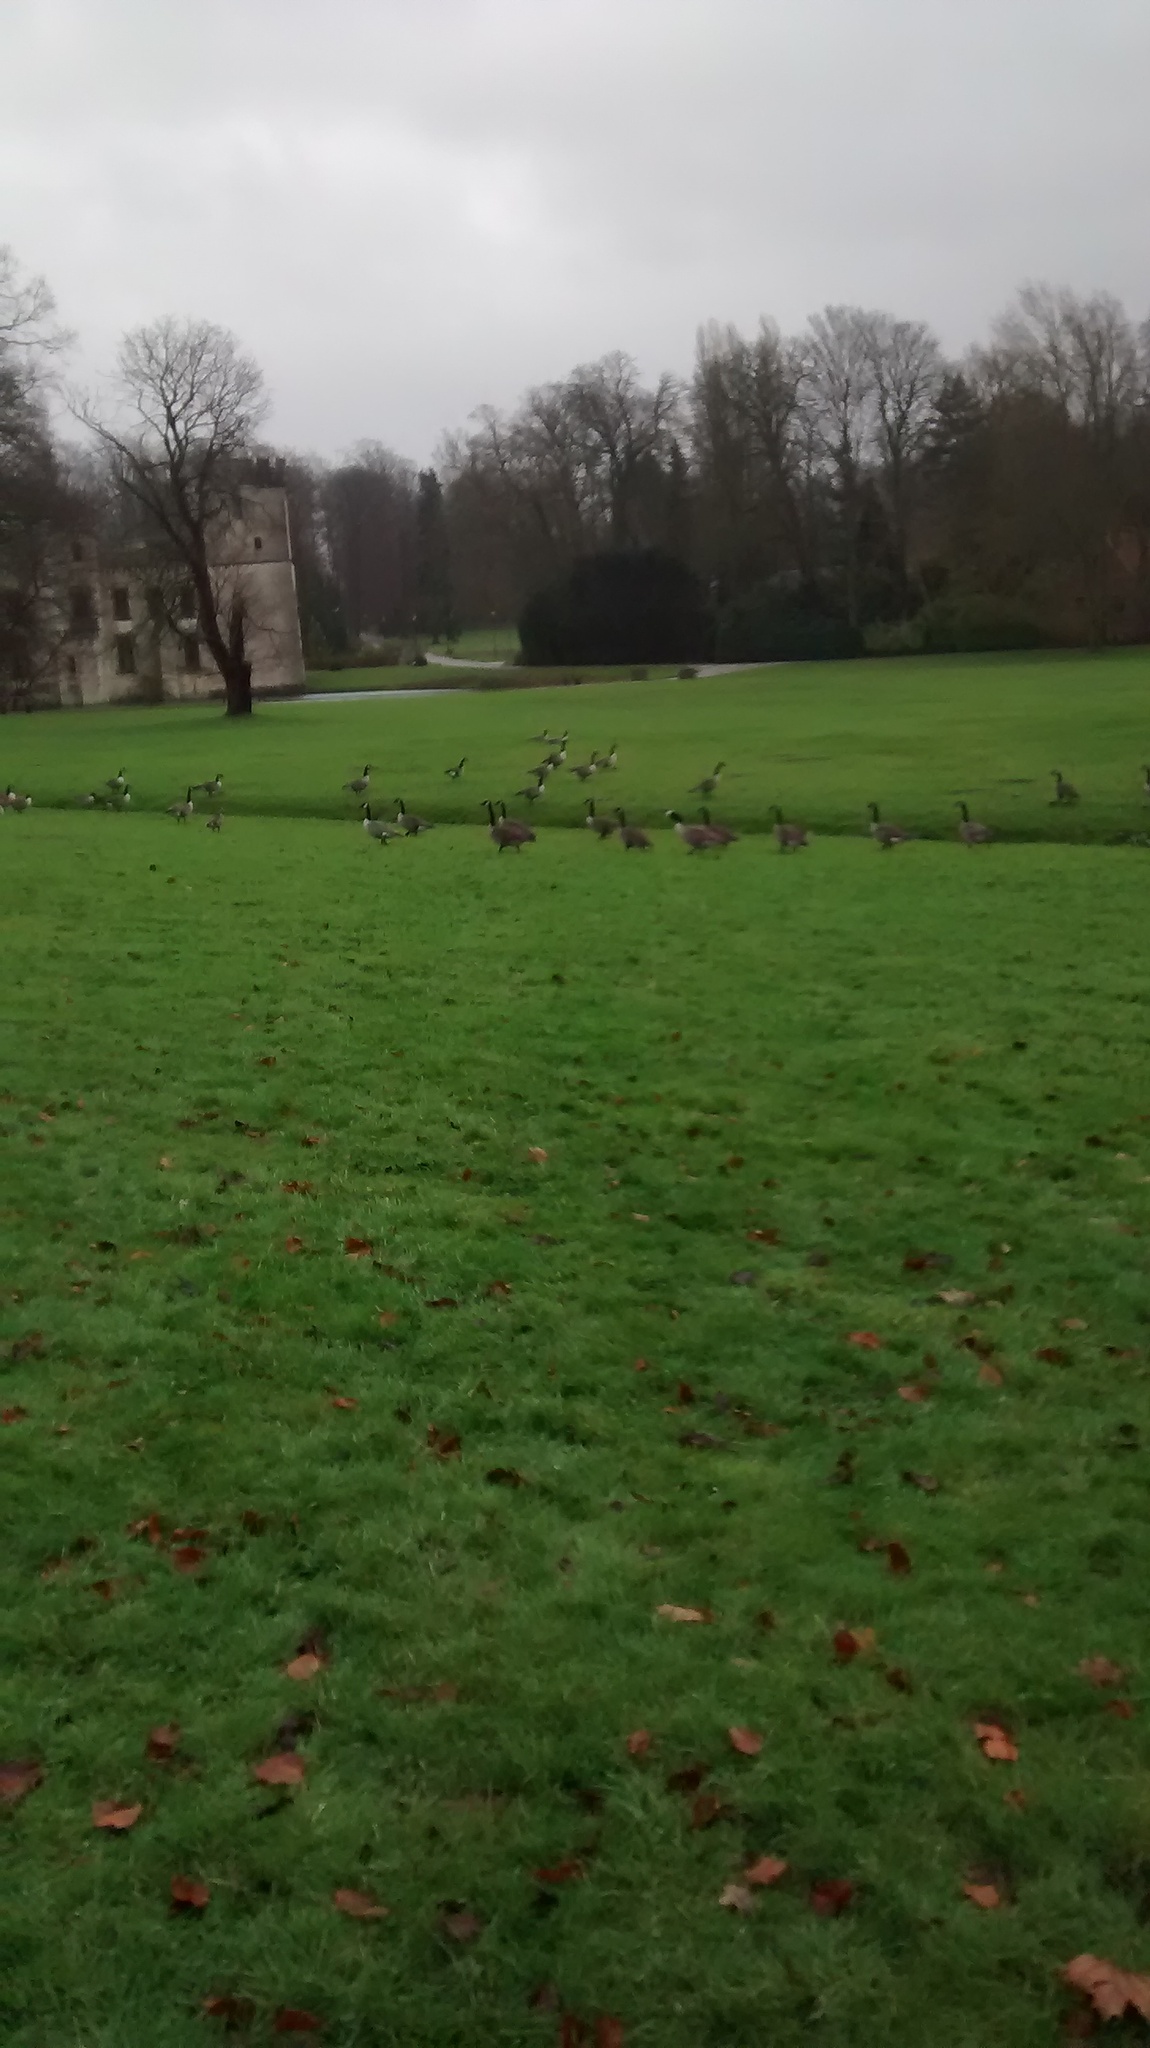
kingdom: Animalia
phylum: Chordata
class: Aves
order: Anseriformes
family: Anatidae
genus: Branta
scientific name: Branta canadensis
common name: Canada goose
